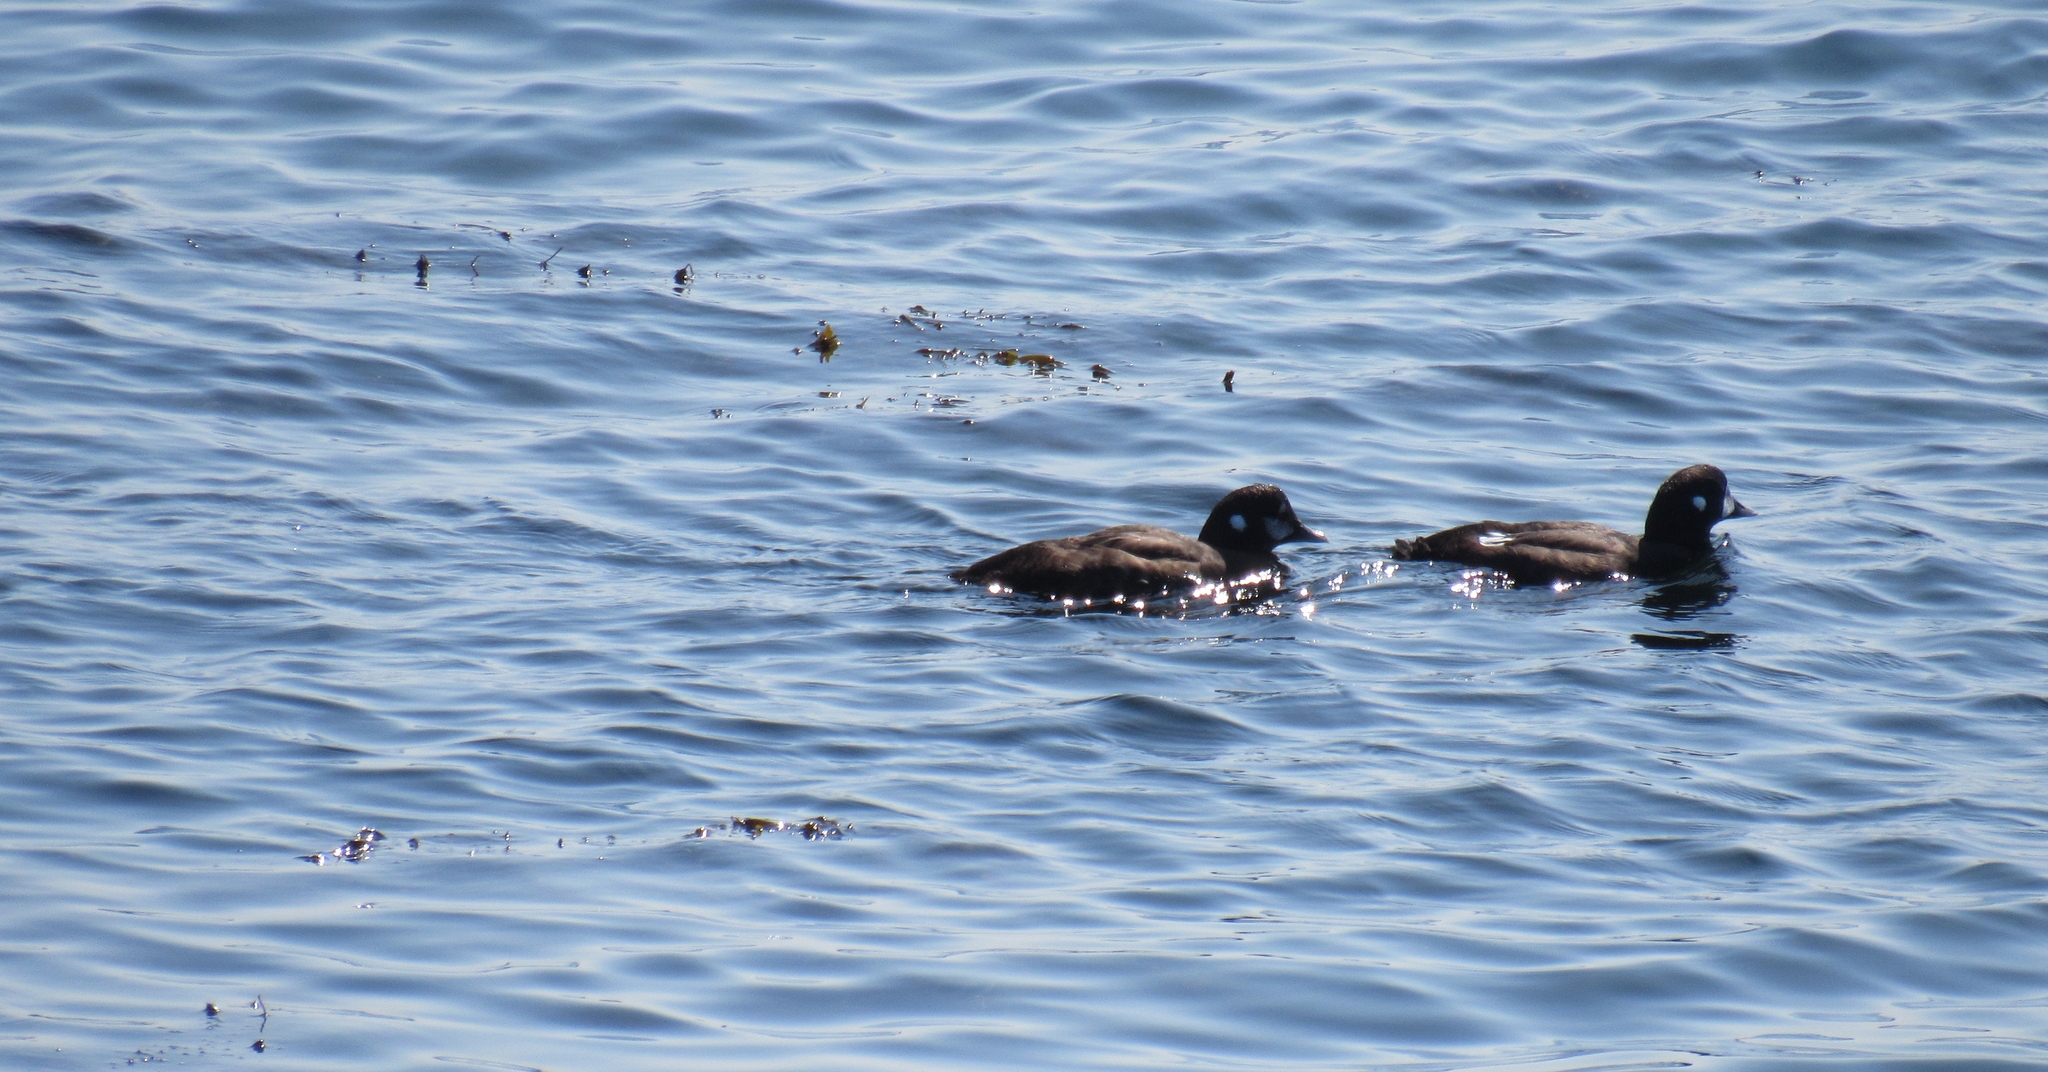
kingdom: Animalia
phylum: Chordata
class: Aves
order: Anseriformes
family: Anatidae
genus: Histrionicus
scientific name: Histrionicus histrionicus
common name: Harlequin duck
